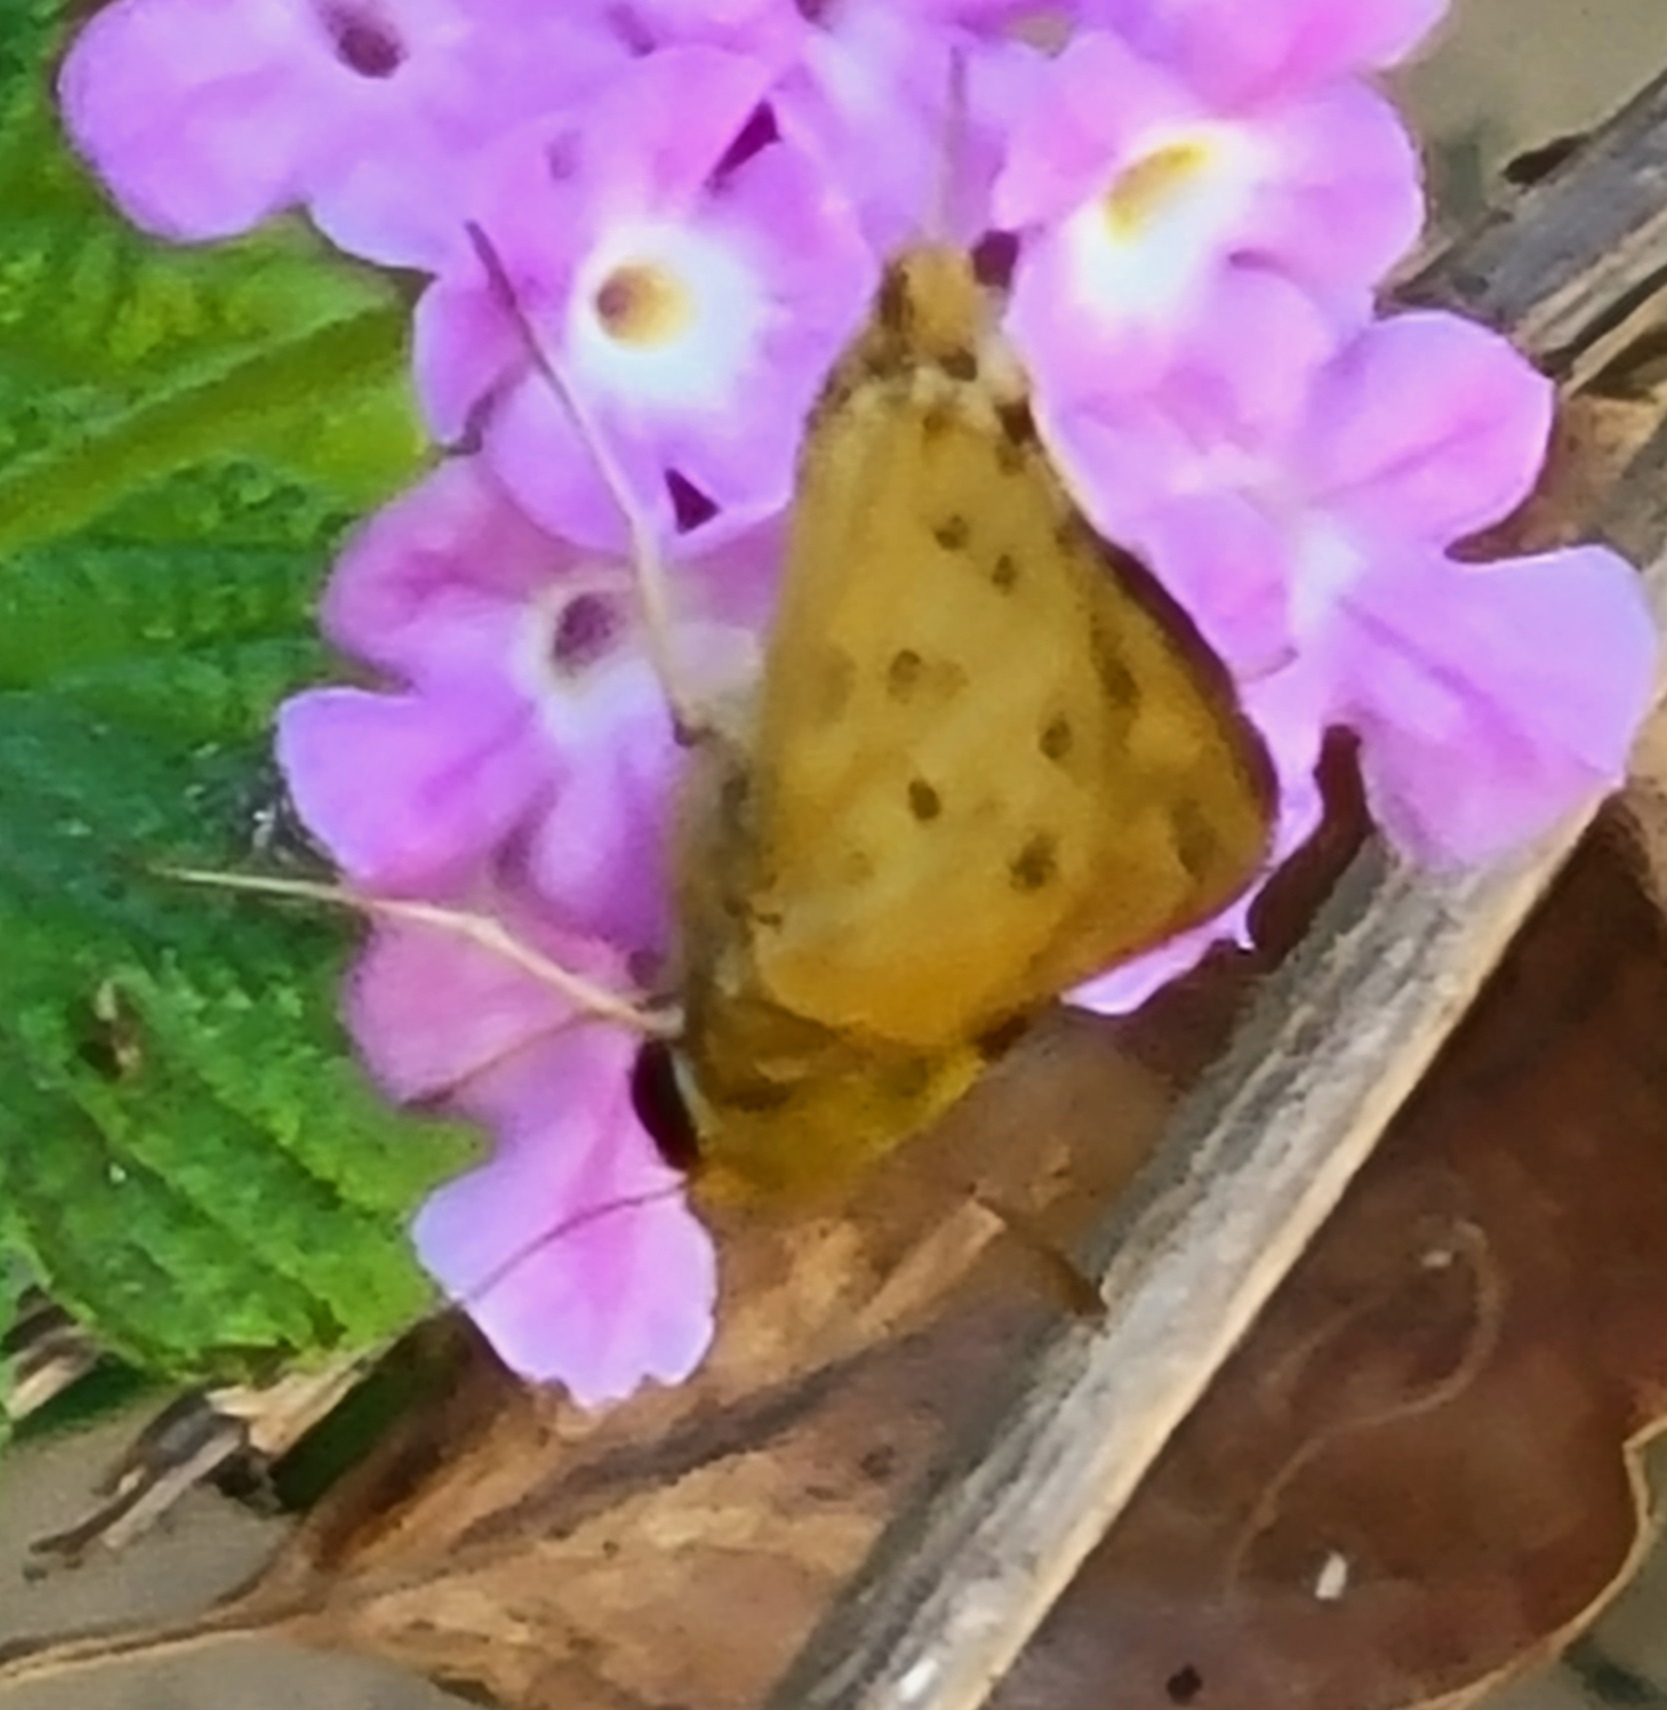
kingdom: Animalia
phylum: Arthropoda
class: Insecta
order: Lepidoptera
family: Hesperiidae
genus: Hylephila
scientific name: Hylephila phyleus
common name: Fiery skipper
